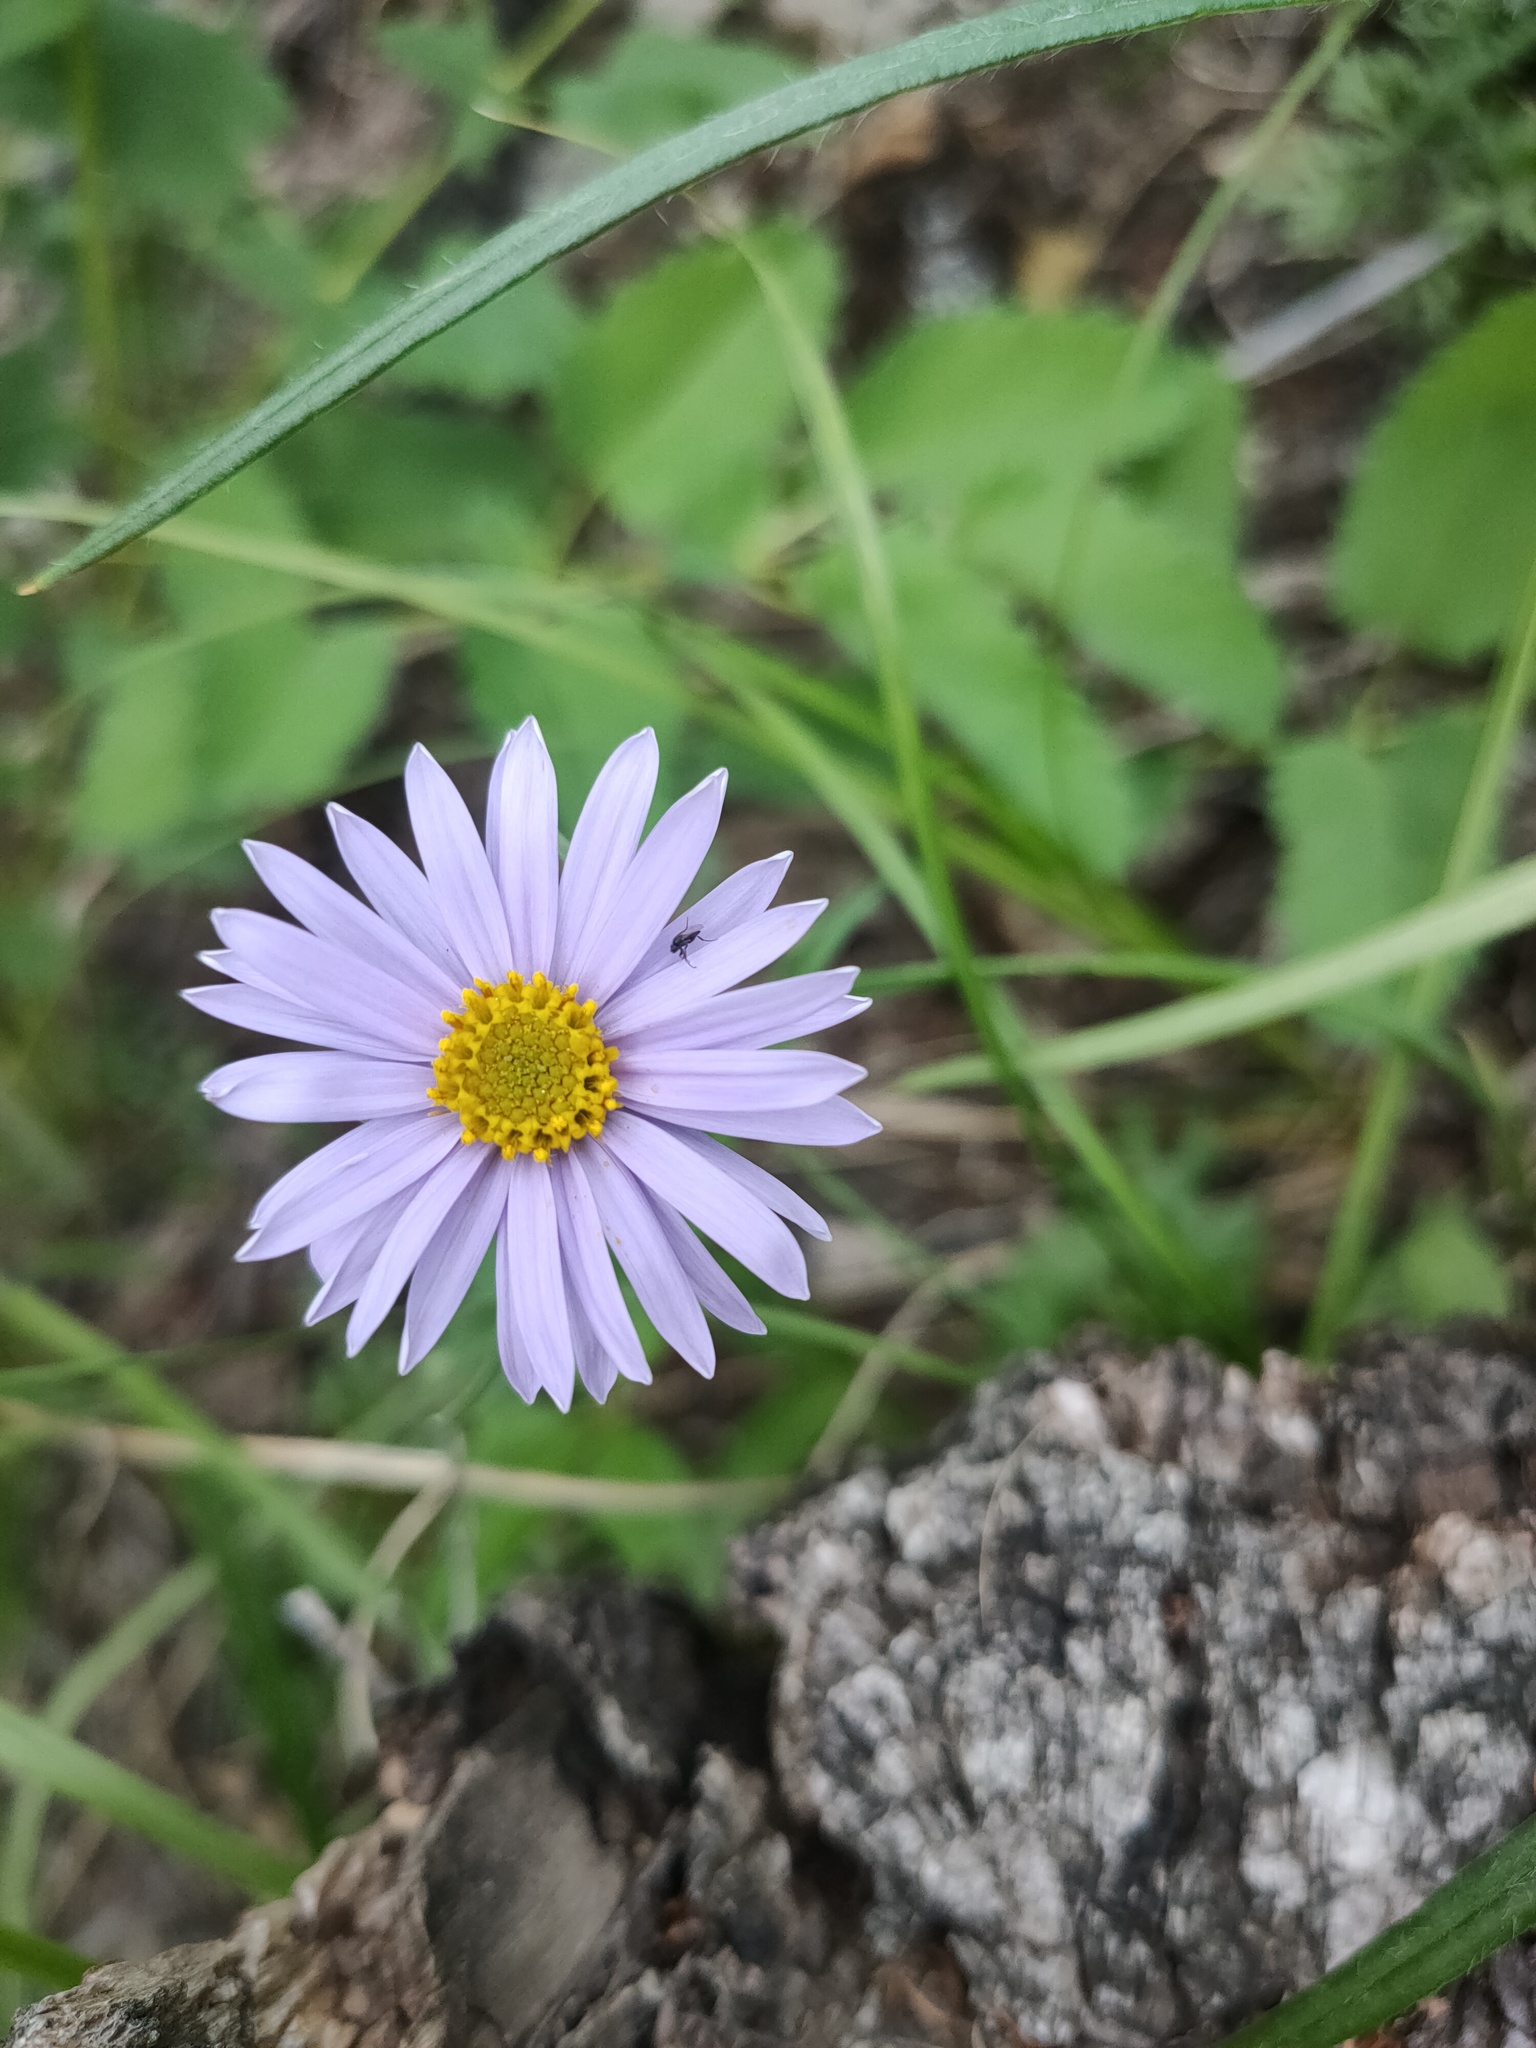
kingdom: Plantae
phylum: Tracheophyta
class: Magnoliopsida
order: Asterales
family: Asteraceae
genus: Aster
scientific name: Aster alpinus
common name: Alpine aster
